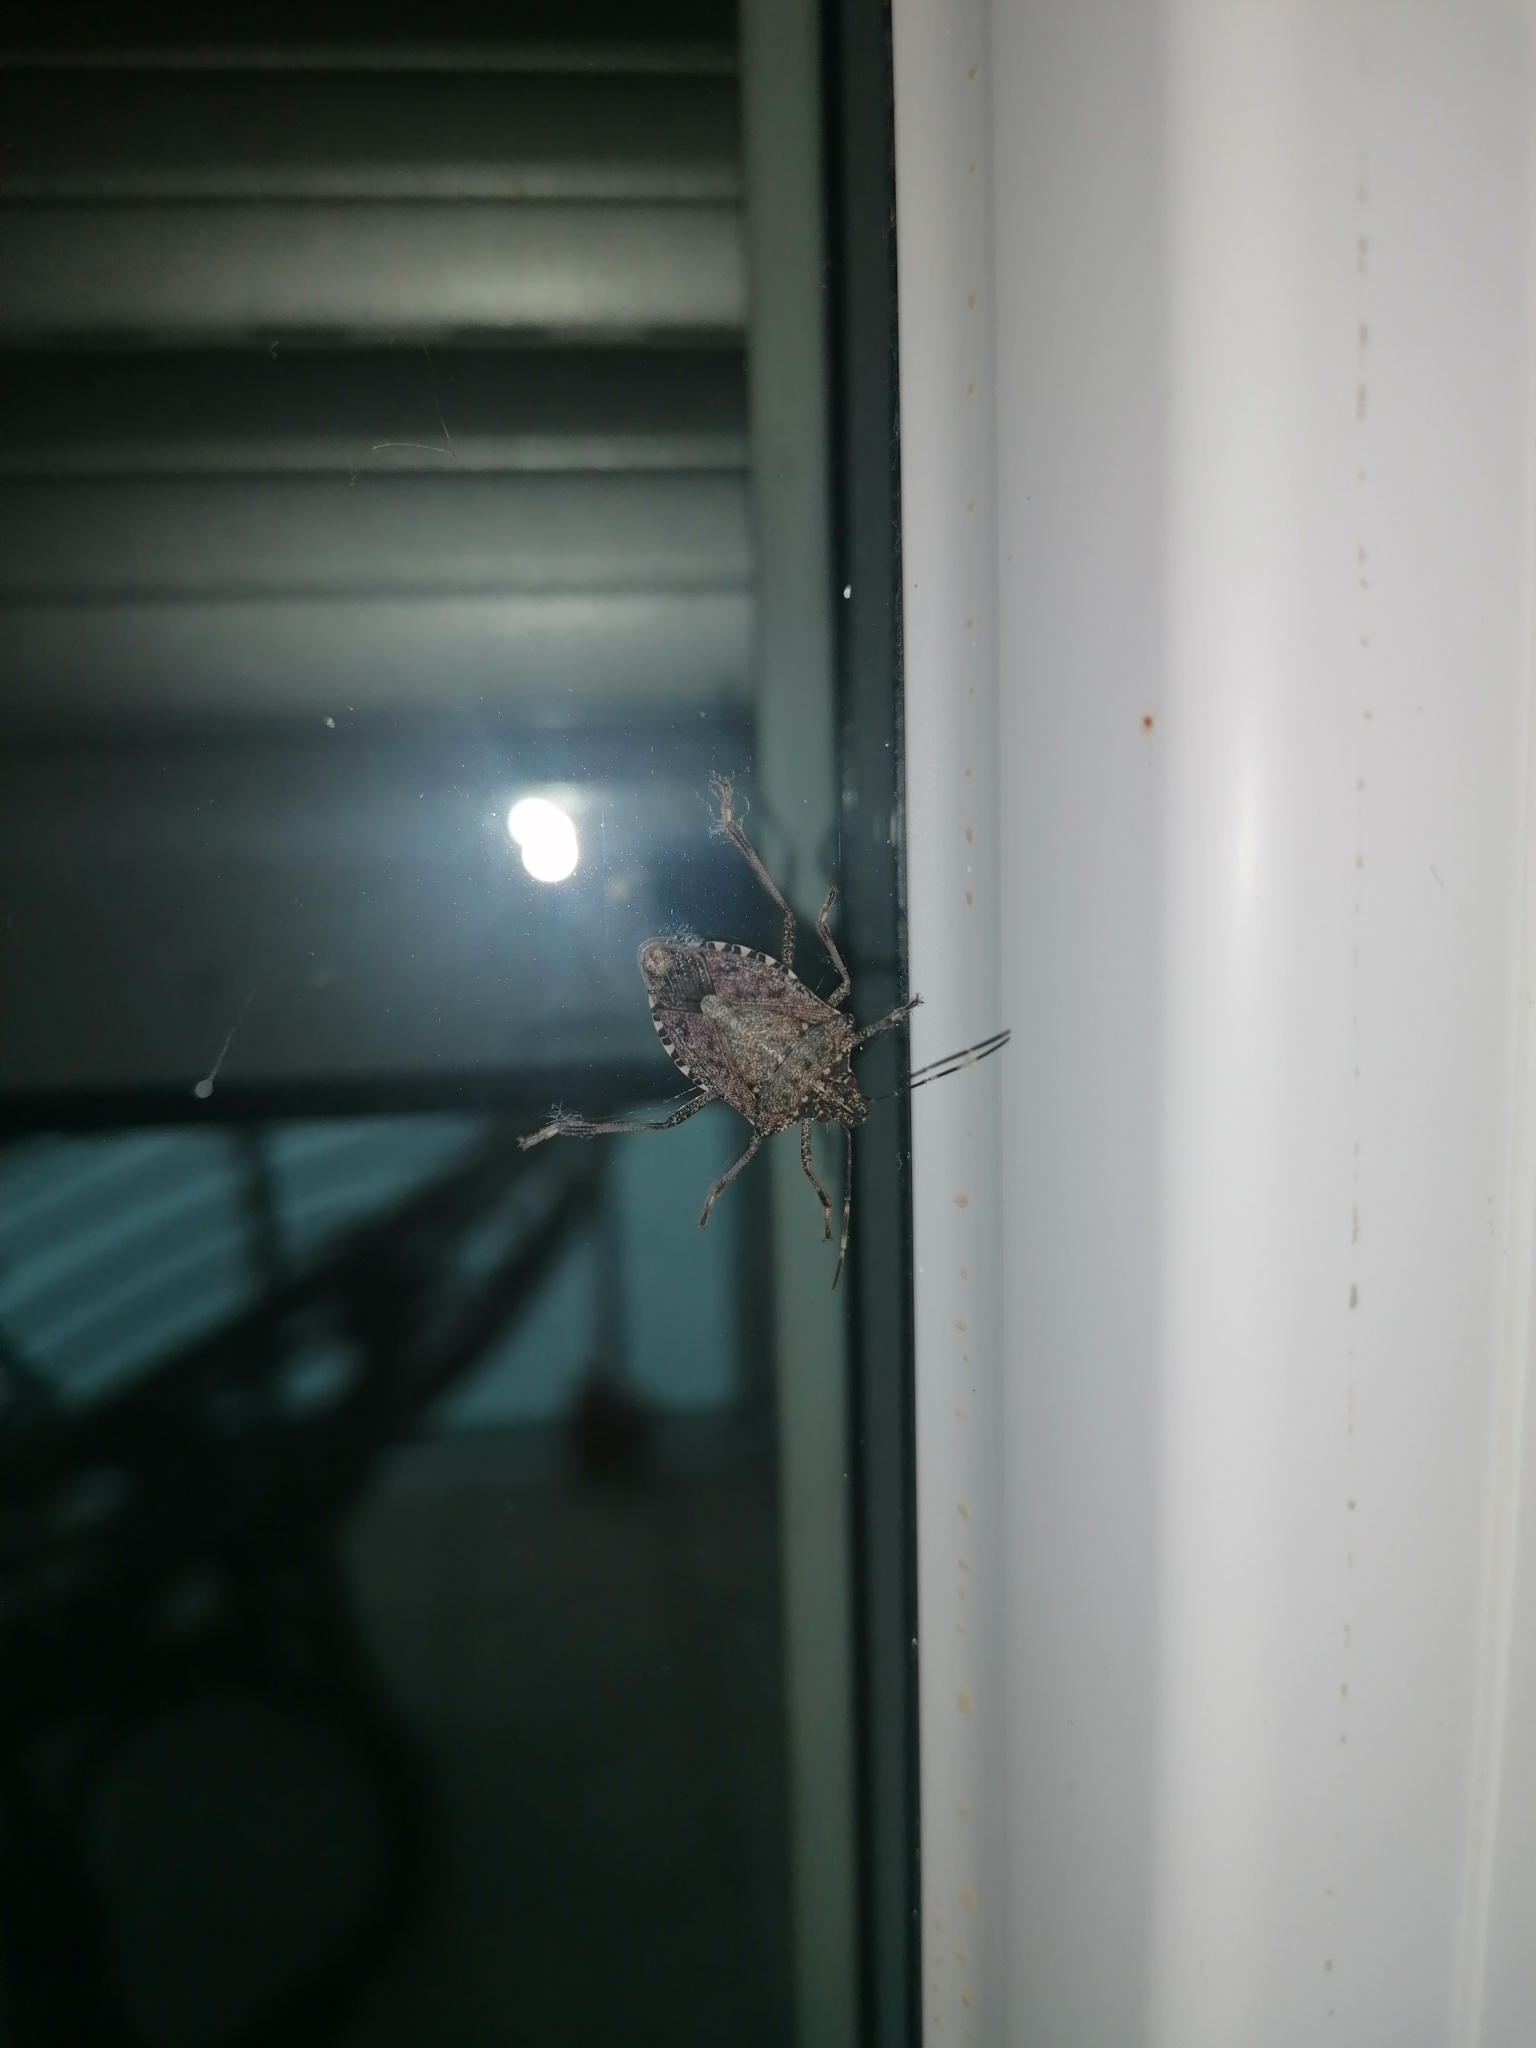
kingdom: Animalia
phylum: Arthropoda
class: Insecta
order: Hemiptera
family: Pentatomidae
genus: Halyomorpha
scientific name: Halyomorpha halys
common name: Brown marmorated stink bug
